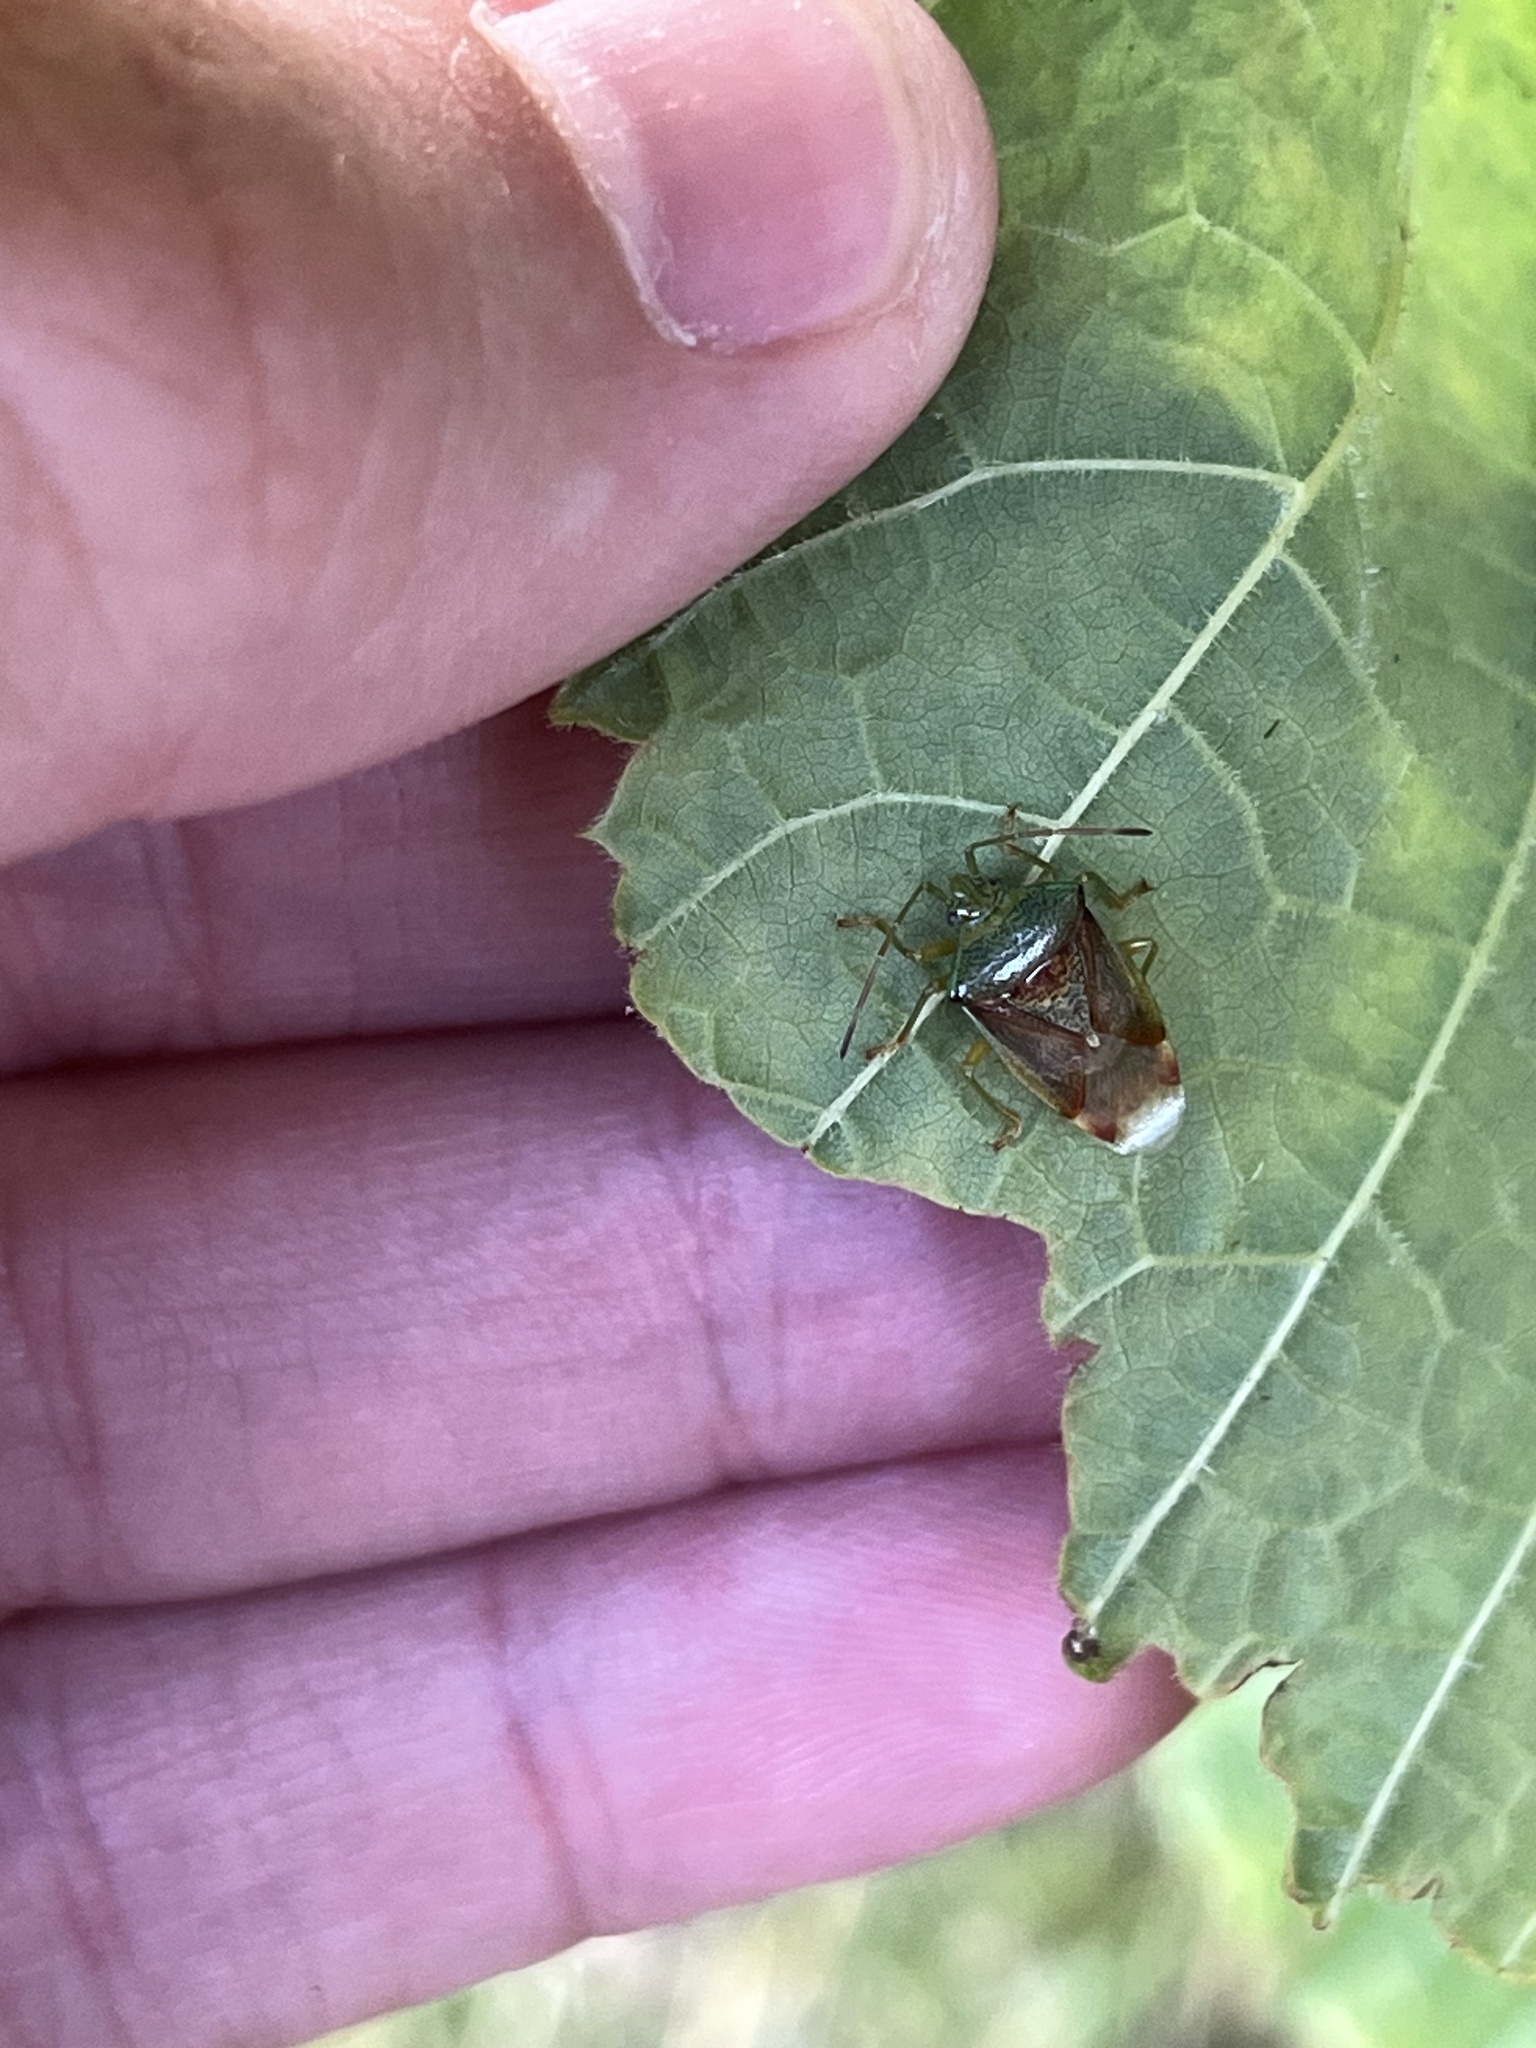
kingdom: Animalia
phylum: Arthropoda
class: Insecta
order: Hemiptera
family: Acanthosomatidae
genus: Elasmostethus
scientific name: Elasmostethus interstinctus
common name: Birch shieldbug
